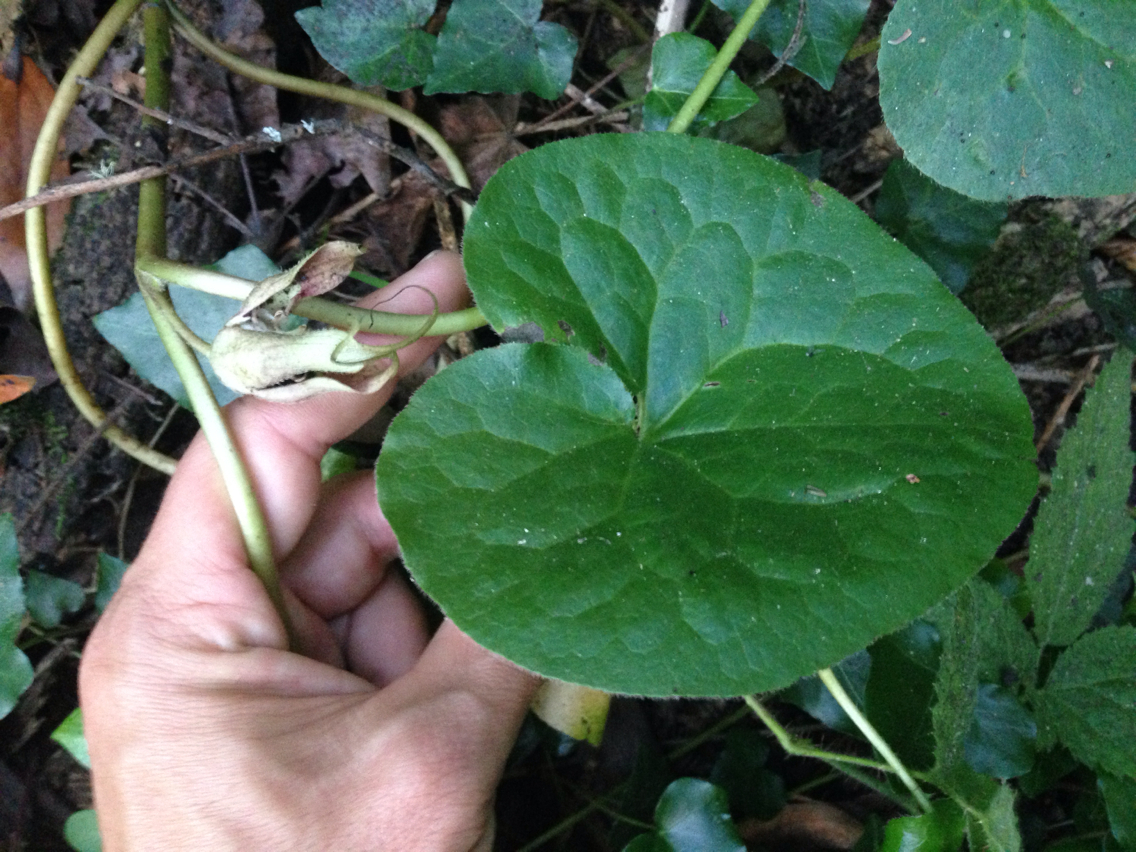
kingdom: Plantae
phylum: Tracheophyta
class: Magnoliopsida
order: Piperales
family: Aristolochiaceae
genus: Asarum
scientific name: Asarum caudatum
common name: Wild ginger
